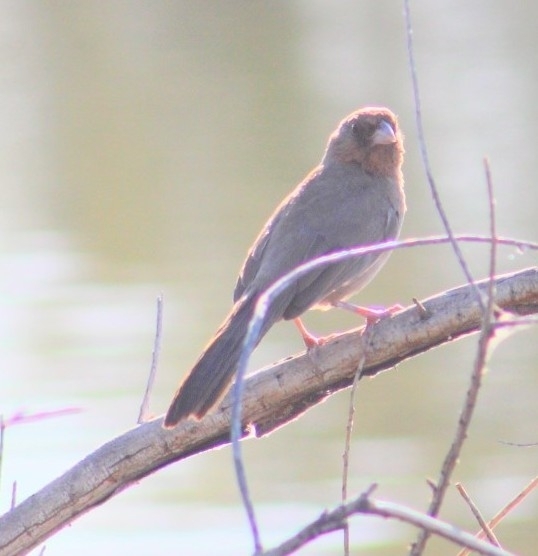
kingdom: Animalia
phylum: Chordata
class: Aves
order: Passeriformes
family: Passerellidae
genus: Melozone
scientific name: Melozone aberti
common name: Abert's towhee
